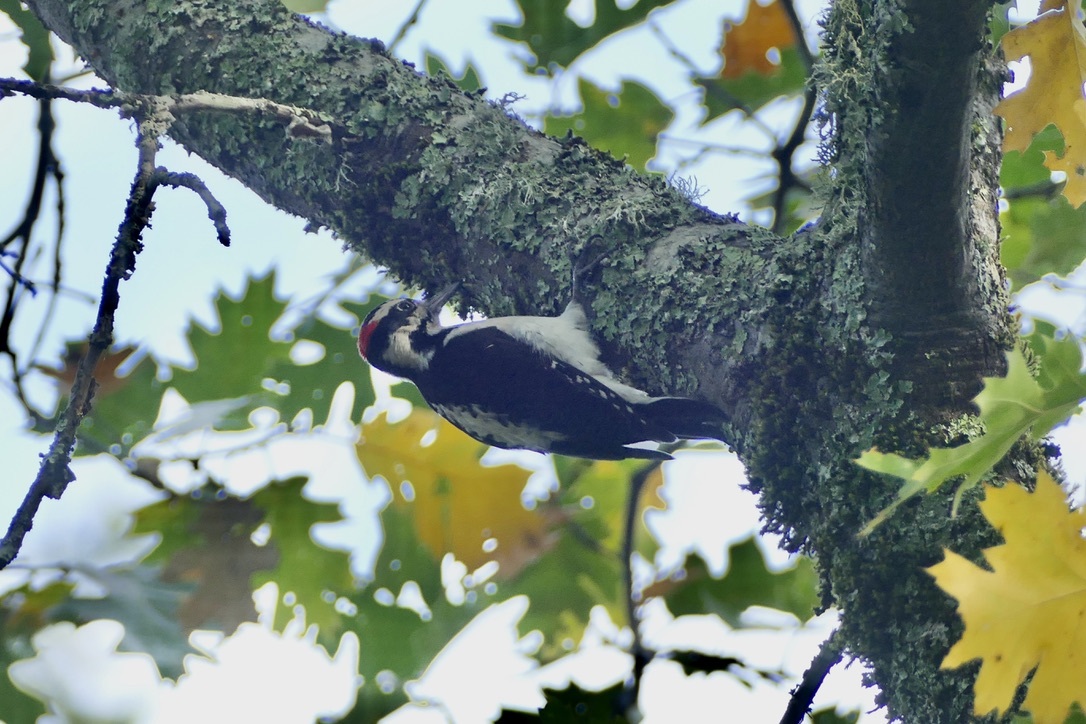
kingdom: Animalia
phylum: Chordata
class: Aves
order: Piciformes
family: Picidae
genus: Leuconotopicus
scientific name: Leuconotopicus villosus
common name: Hairy woodpecker
